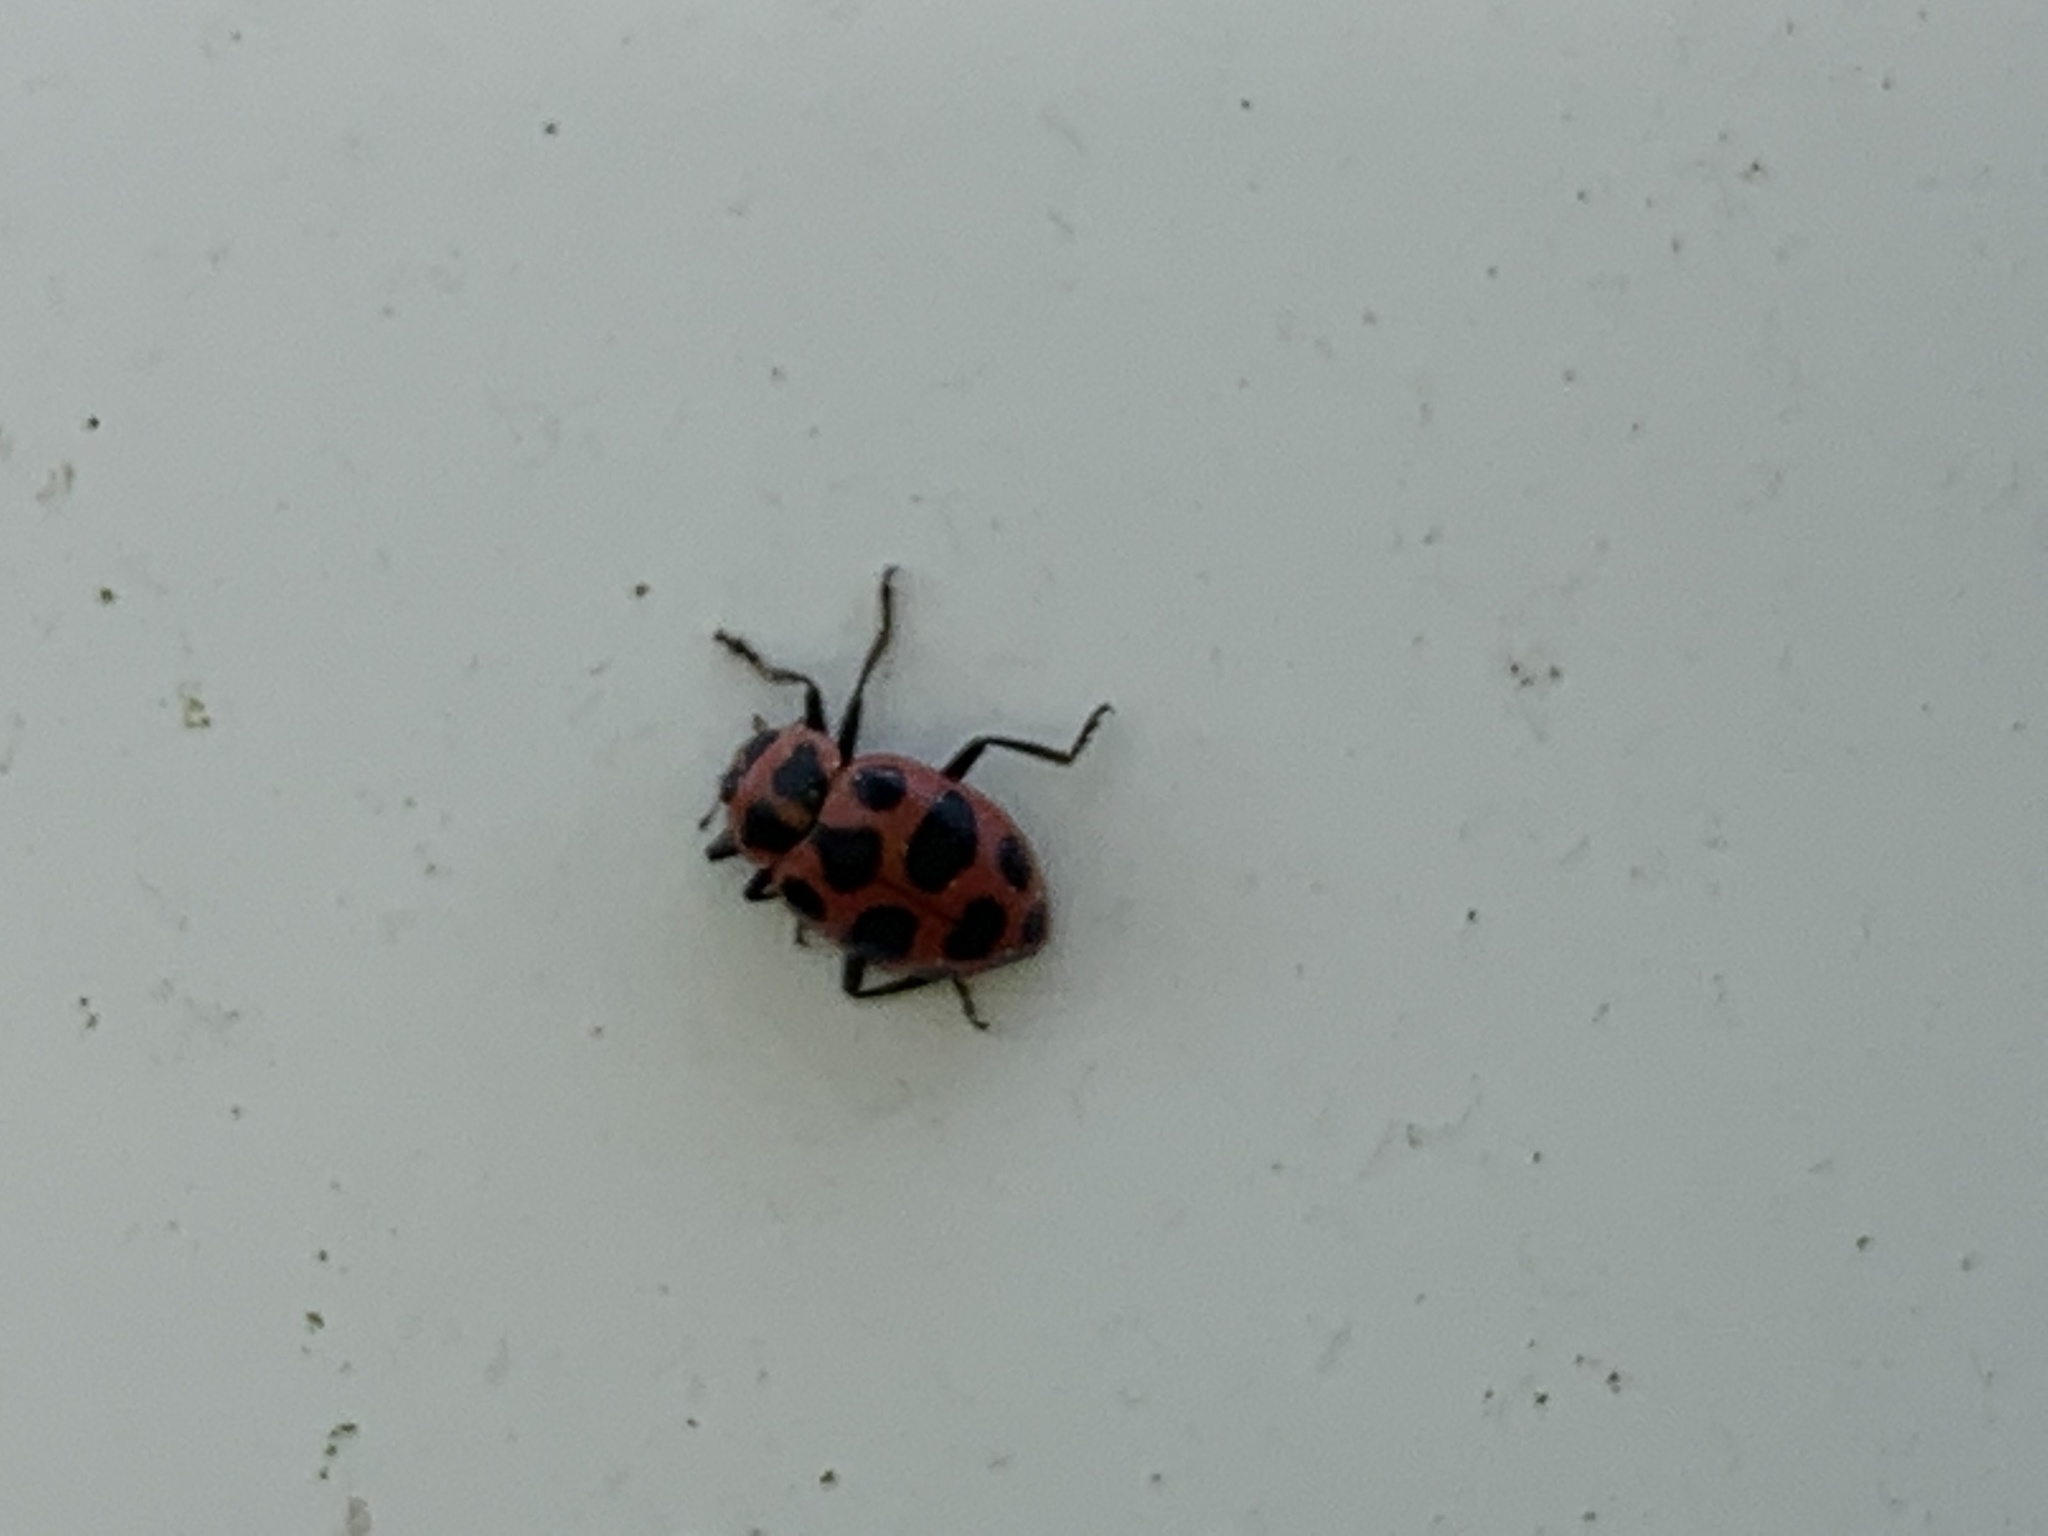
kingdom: Animalia
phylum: Arthropoda
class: Insecta
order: Coleoptera
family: Coccinellidae
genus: Coleomegilla
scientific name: Coleomegilla maculata
